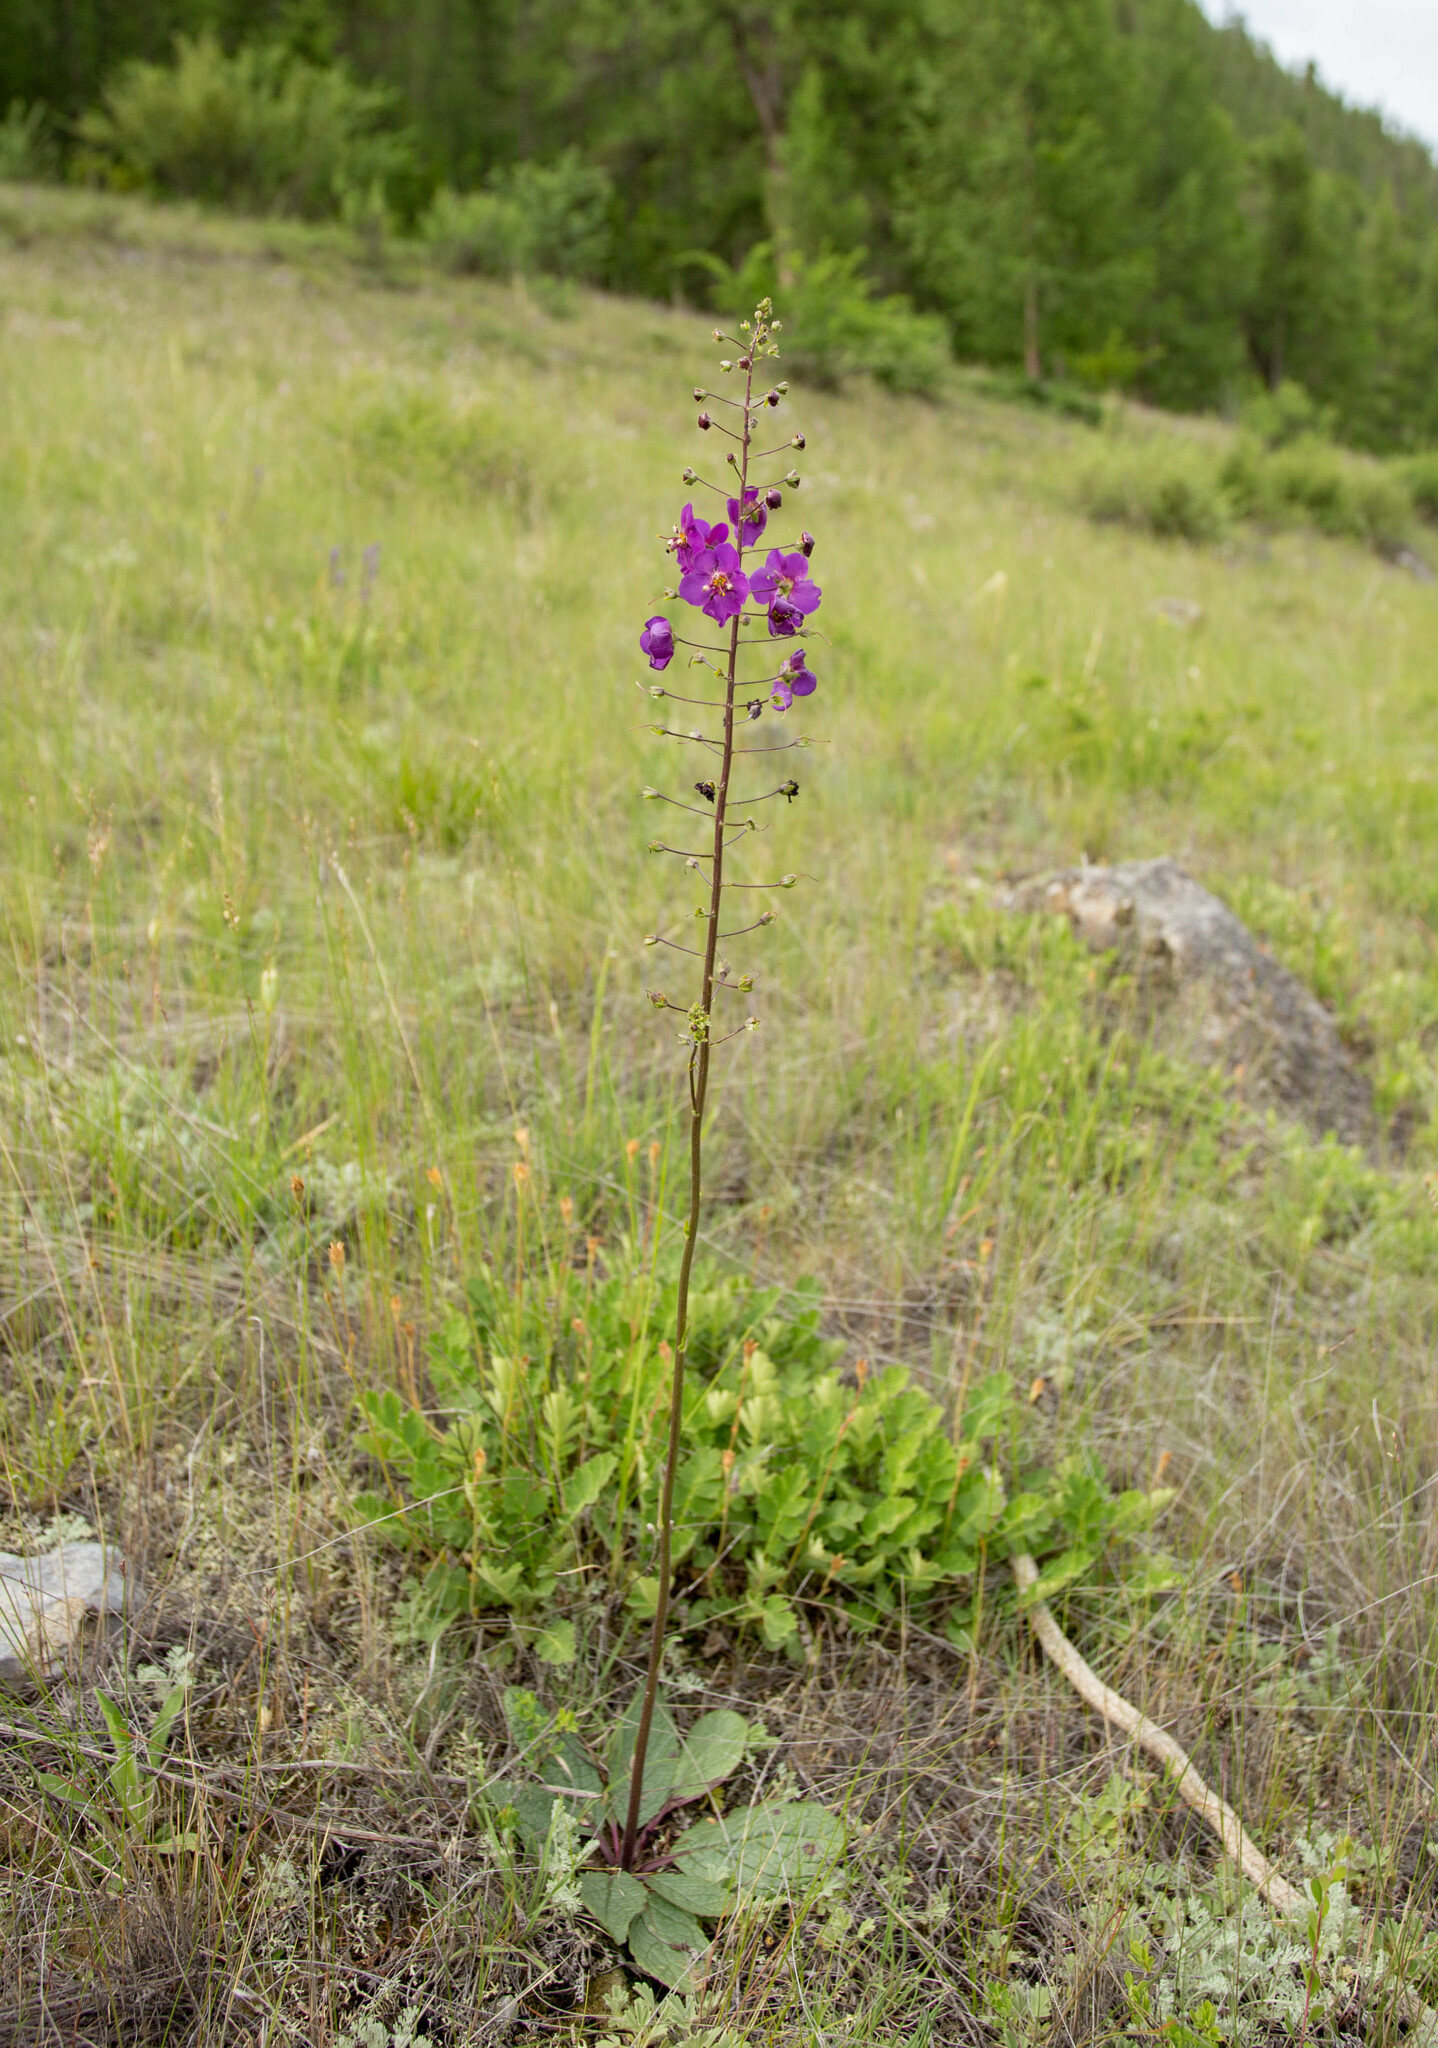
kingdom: Plantae
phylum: Tracheophyta
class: Magnoliopsida
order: Lamiales
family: Scrophulariaceae
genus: Verbascum
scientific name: Verbascum phoeniceum
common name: Purple mullein
